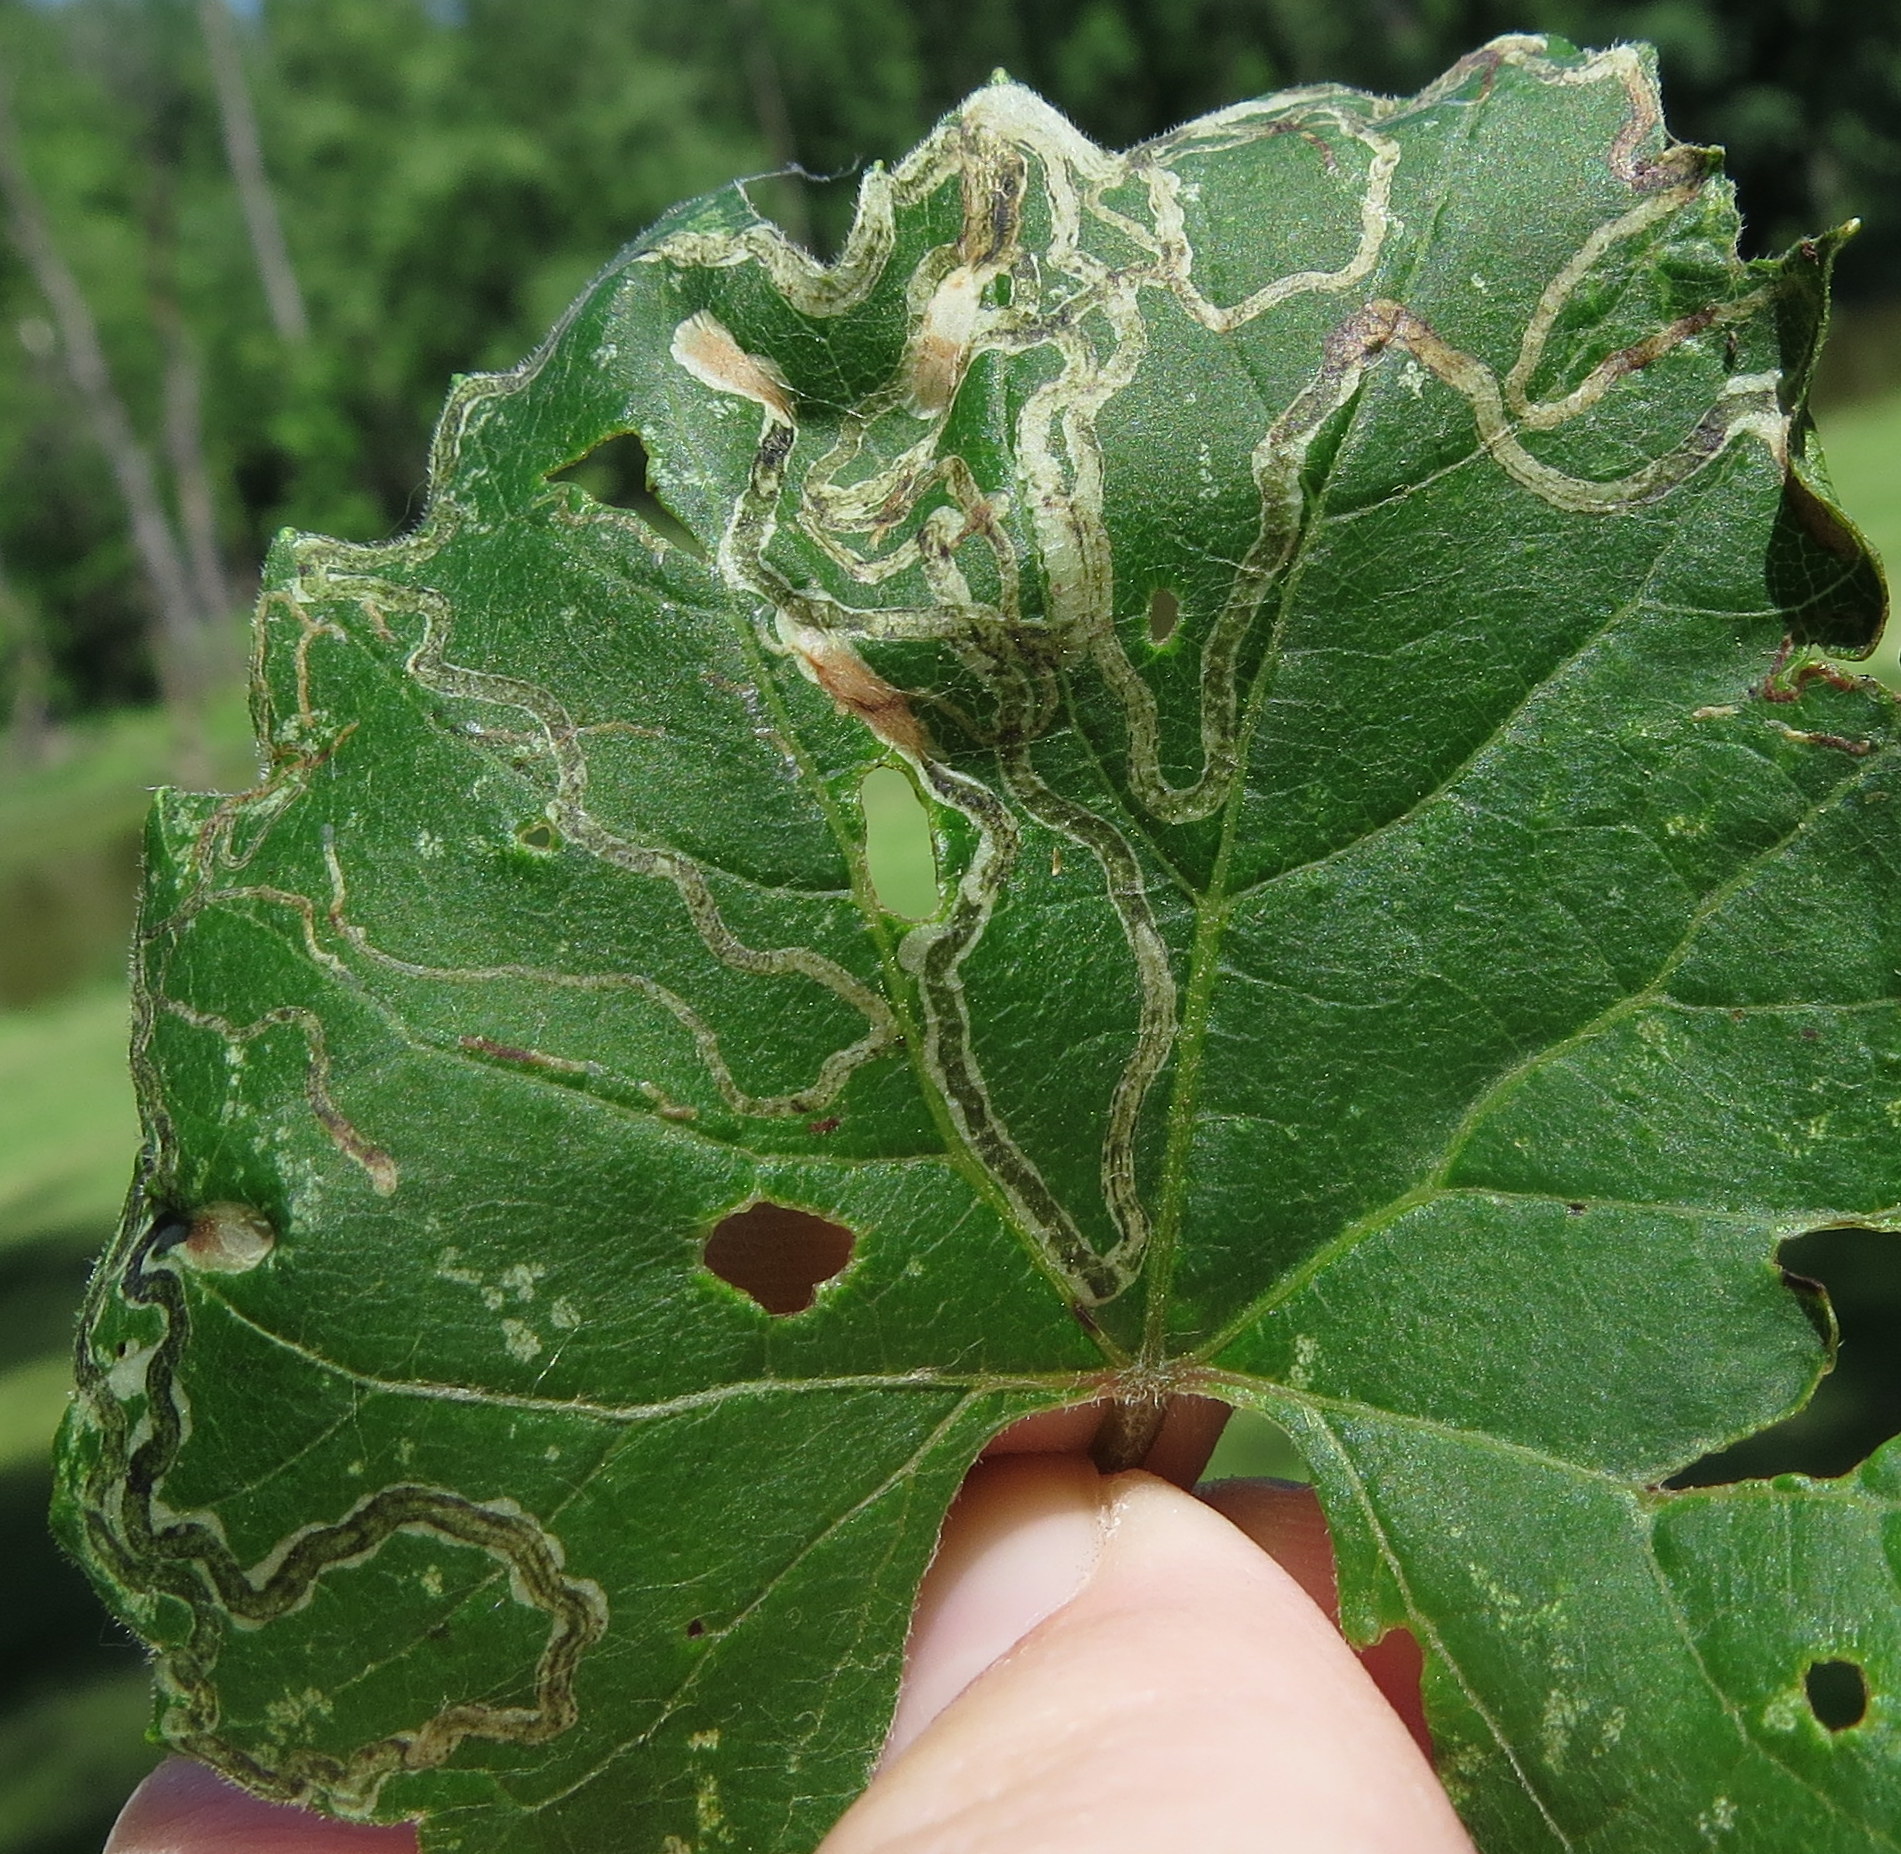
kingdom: Animalia
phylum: Arthropoda
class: Insecta
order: Lepidoptera
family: Gracillariidae
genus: Phyllocnistis
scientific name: Phyllocnistis vitifoliella
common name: Grape leaf-miner moth
